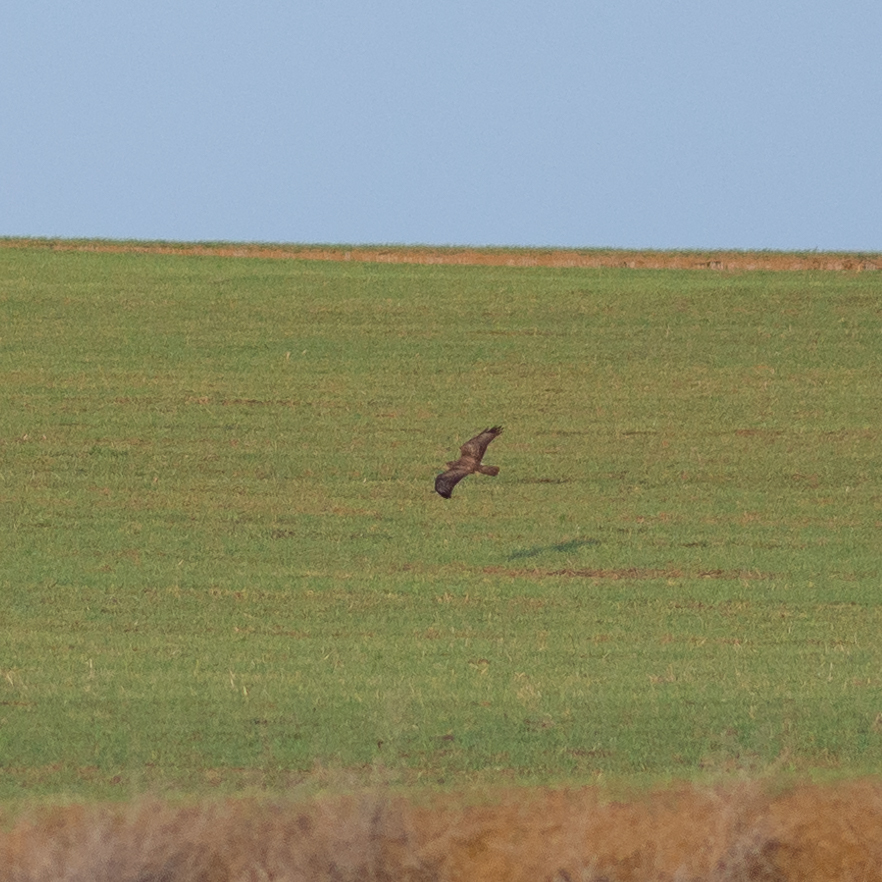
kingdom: Animalia
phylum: Chordata
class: Aves
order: Accipitriformes
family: Accipitridae
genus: Buteo
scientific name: Buteo buteo
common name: Common buzzard
